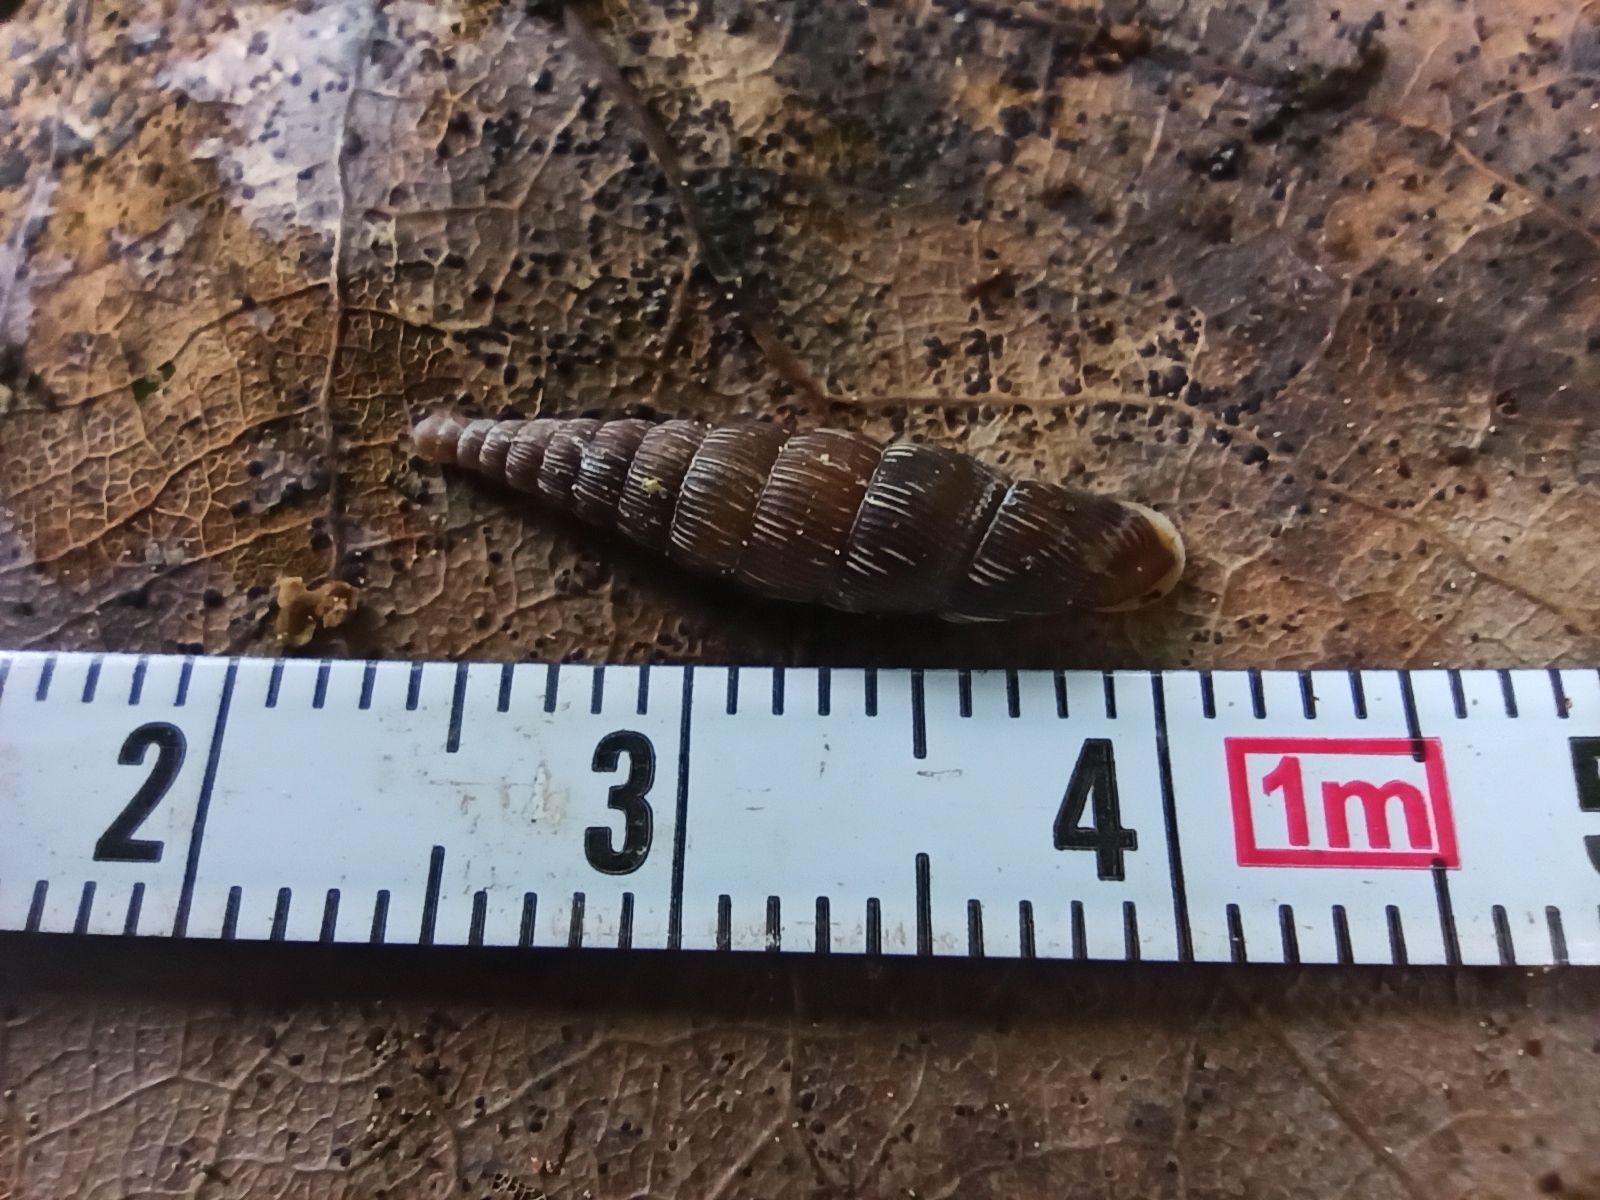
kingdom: Animalia
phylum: Mollusca
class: Gastropoda
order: Stylommatophora
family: Clausiliidae
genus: Strigillaria
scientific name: Strigillaria cana
